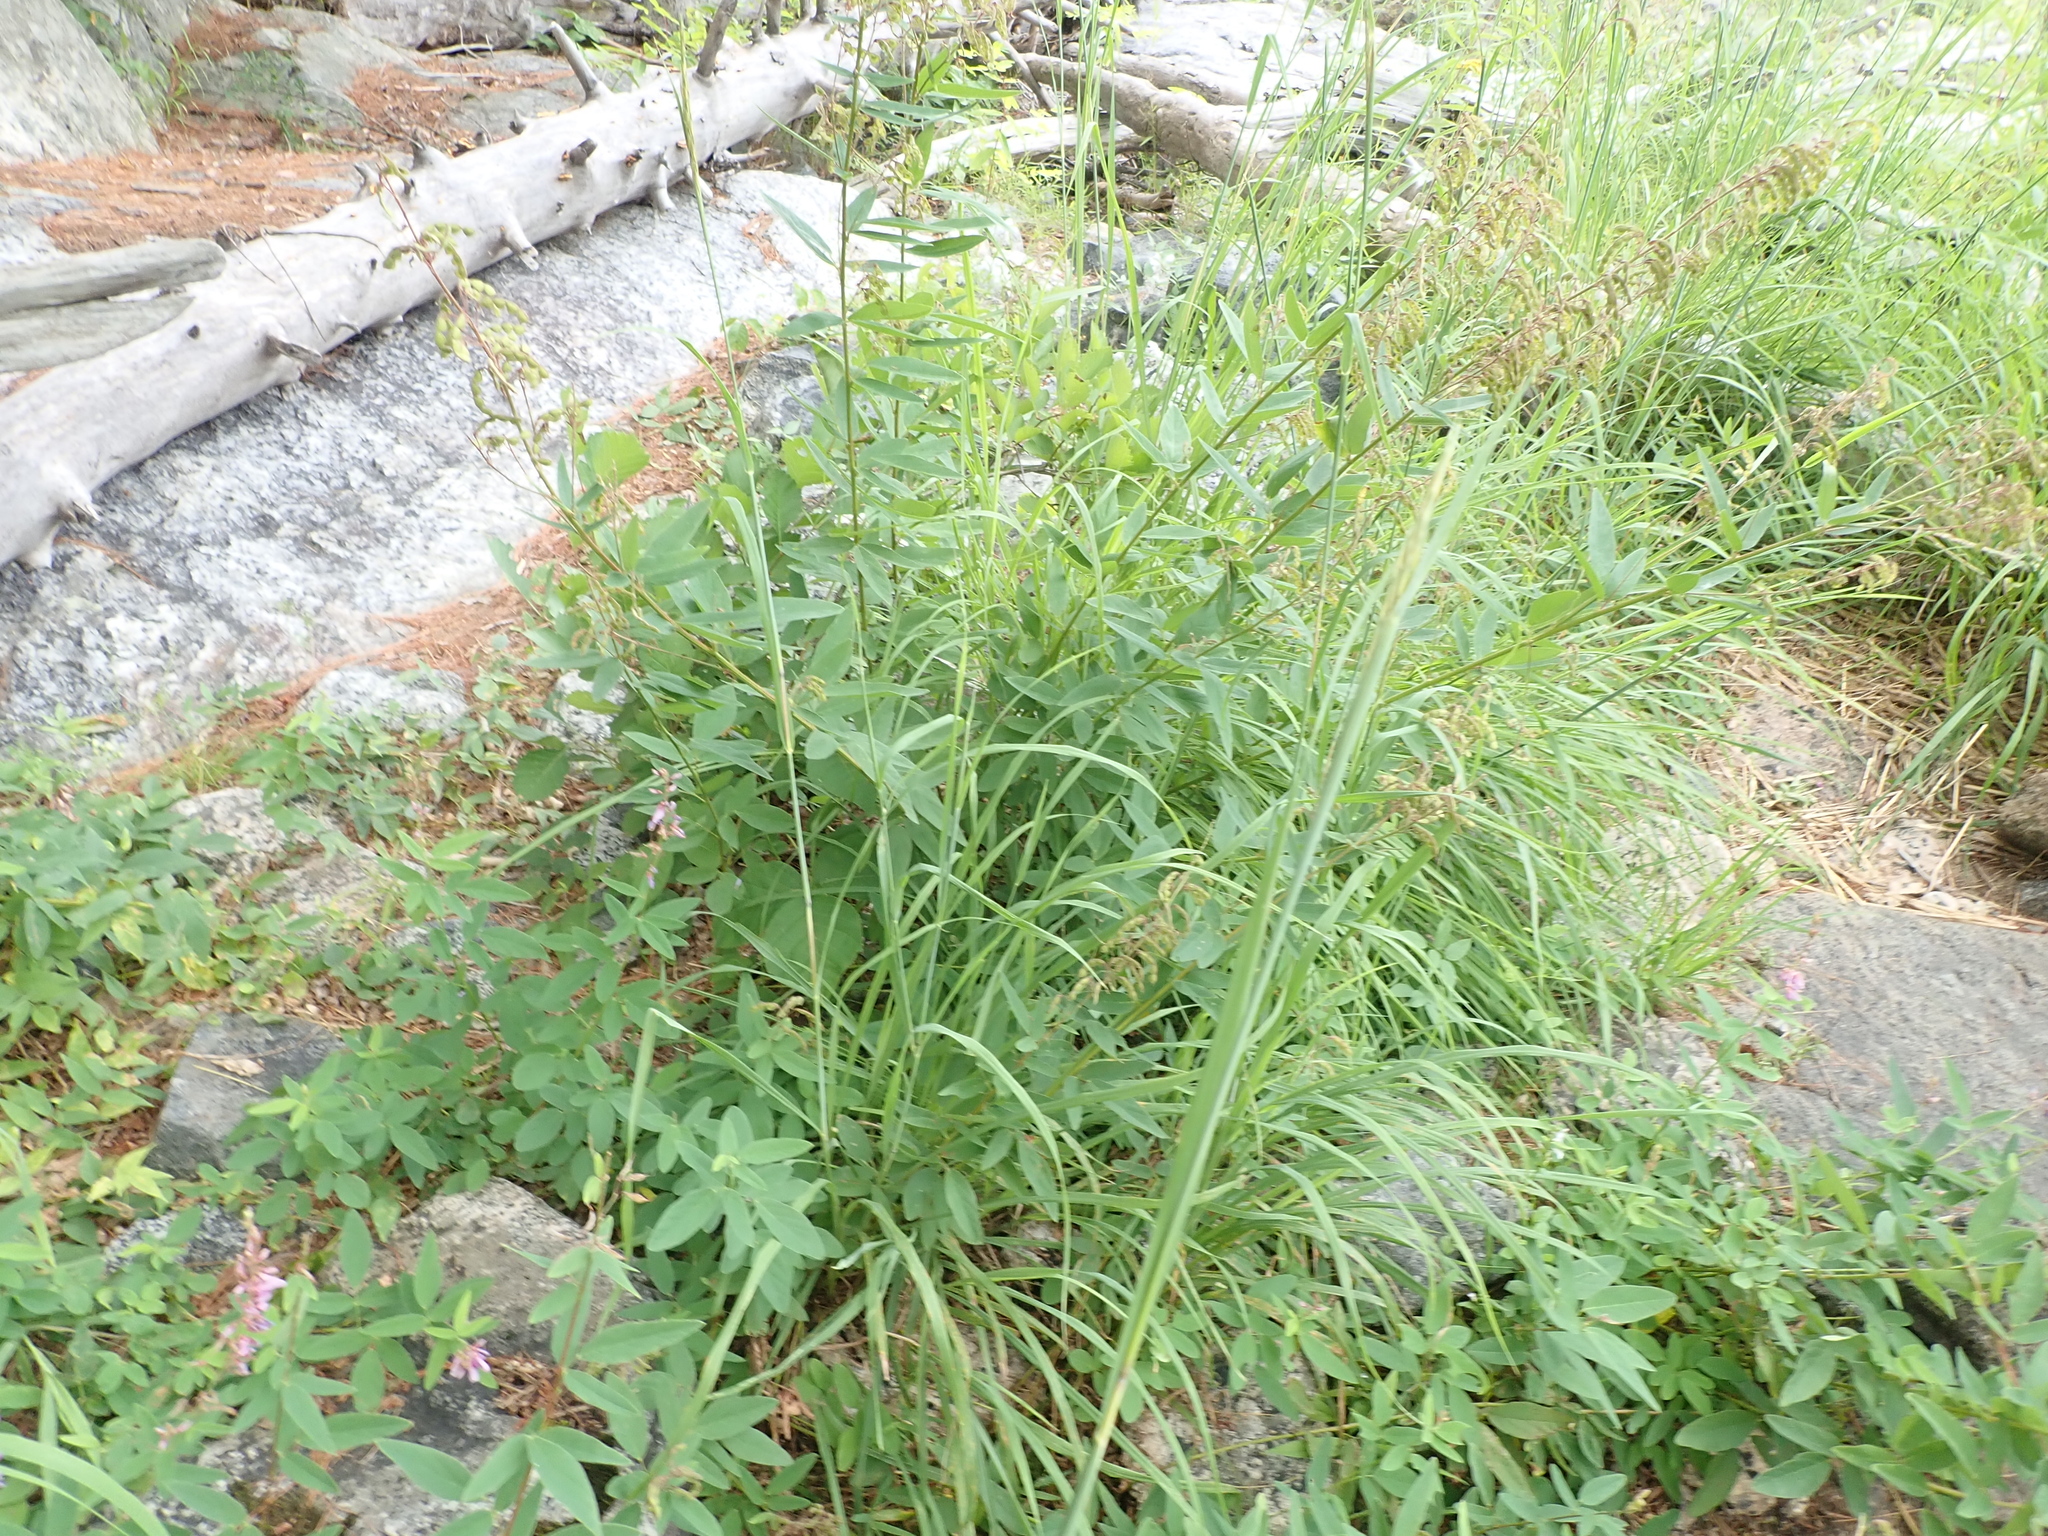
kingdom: Plantae
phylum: Tracheophyta
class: Magnoliopsida
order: Fabales
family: Fabaceae
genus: Desmodium
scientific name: Desmodium canadense
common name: Canada tick-trefoil
